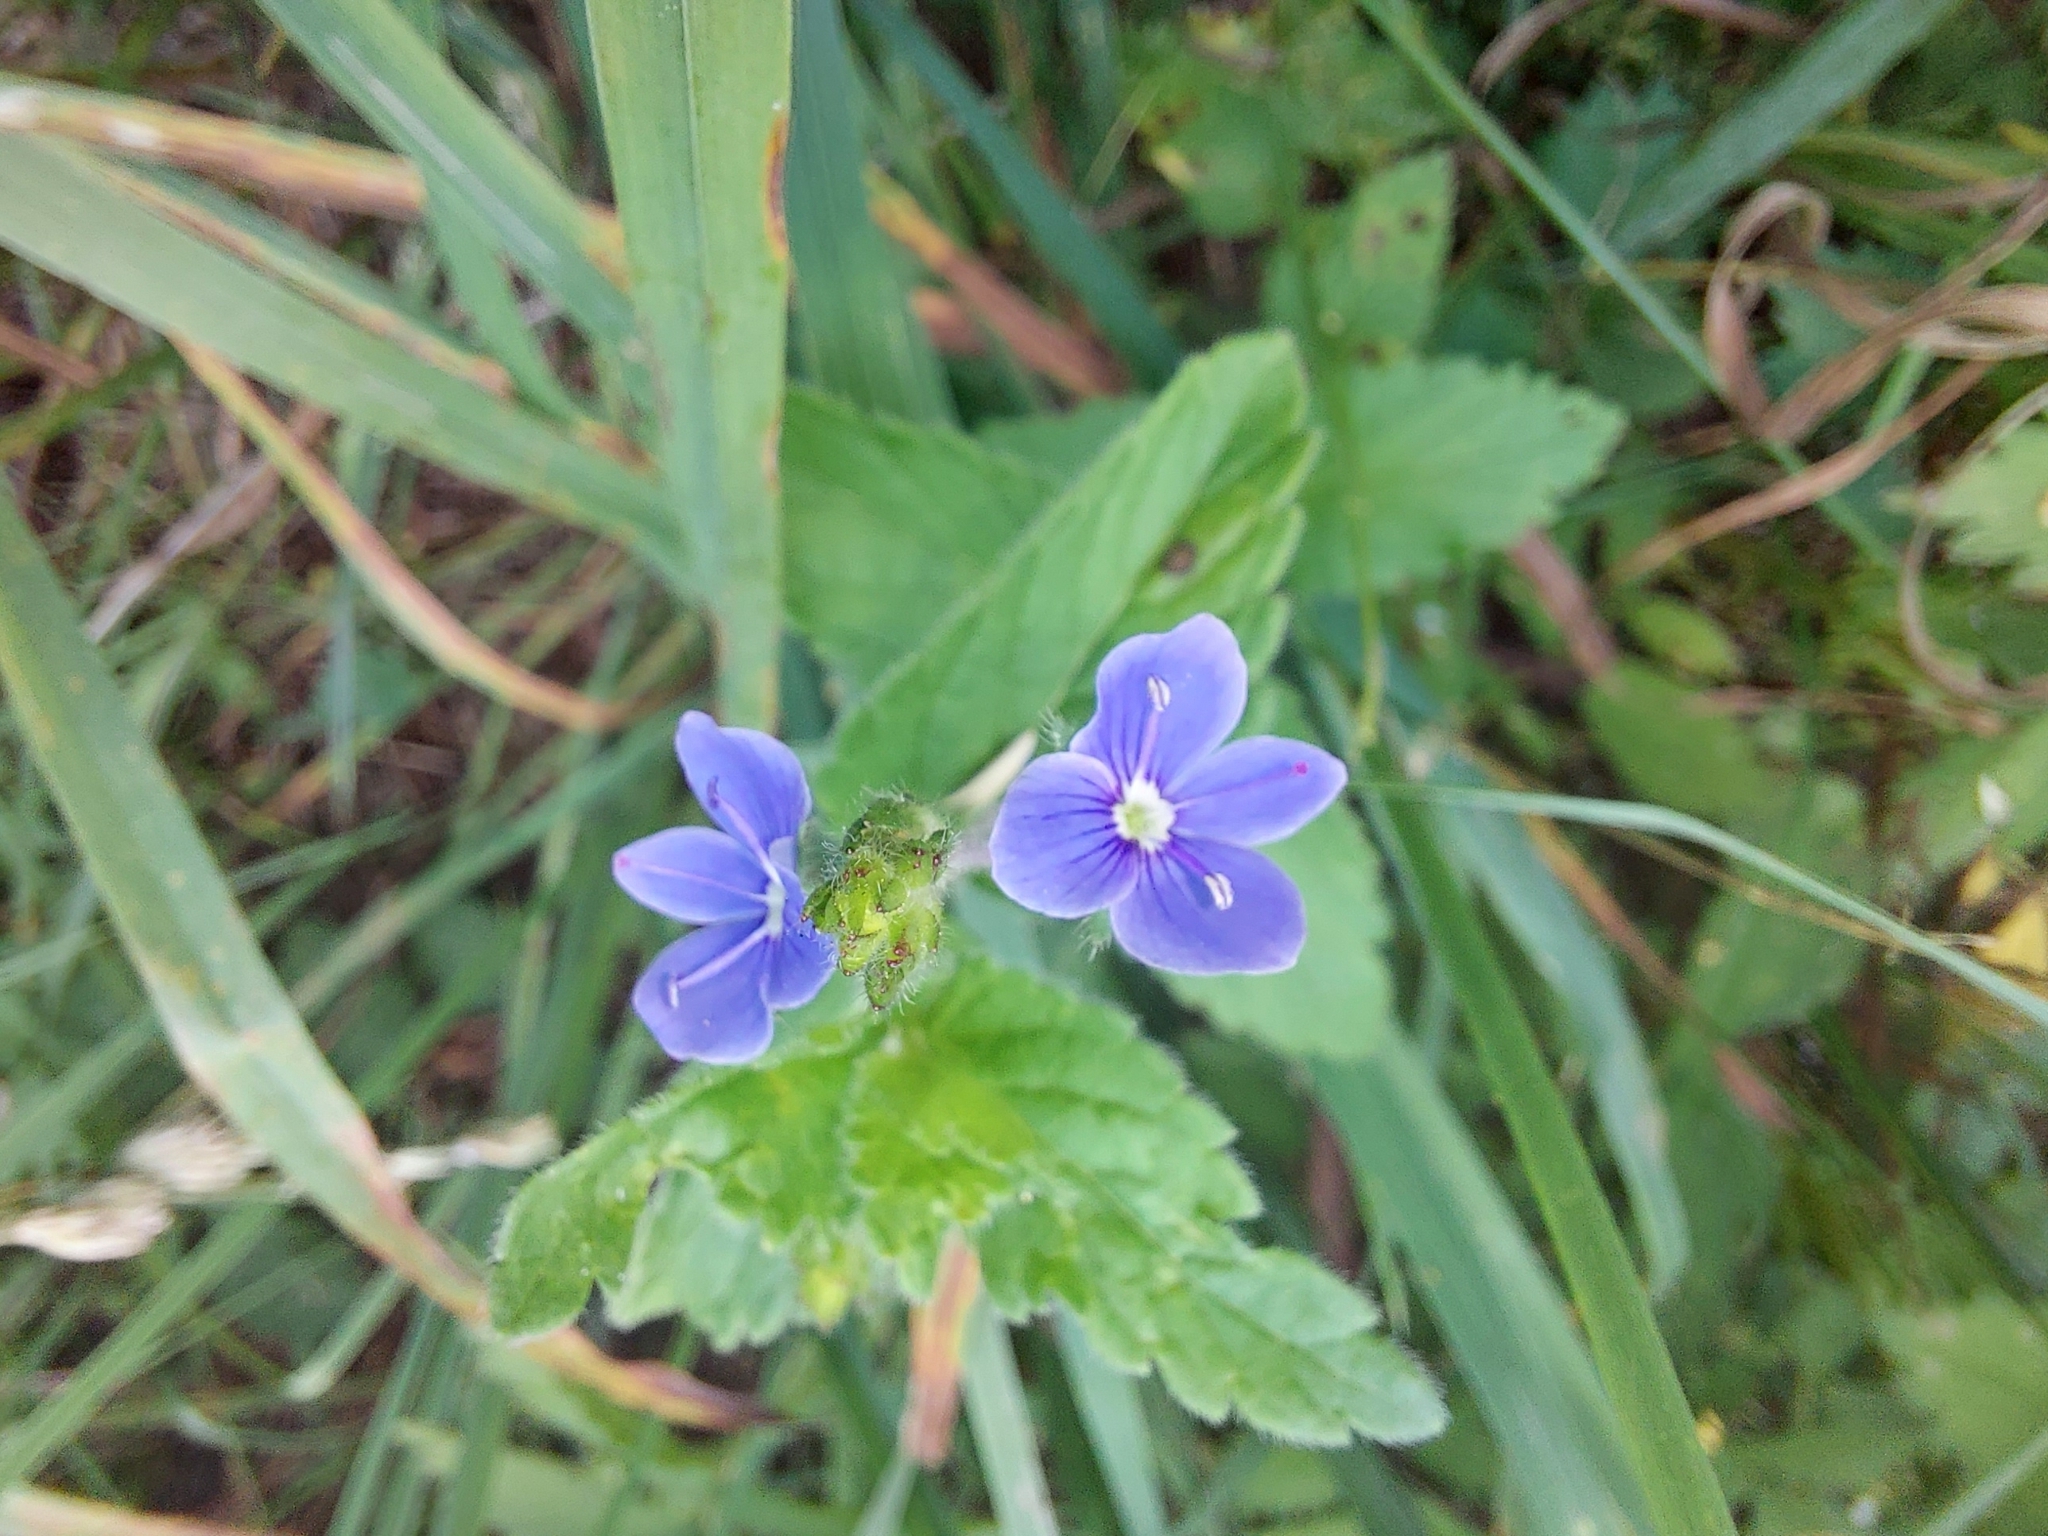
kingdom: Plantae
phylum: Tracheophyta
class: Magnoliopsida
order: Lamiales
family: Plantaginaceae
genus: Veronica
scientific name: Veronica chamaedrys
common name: Germander speedwell
